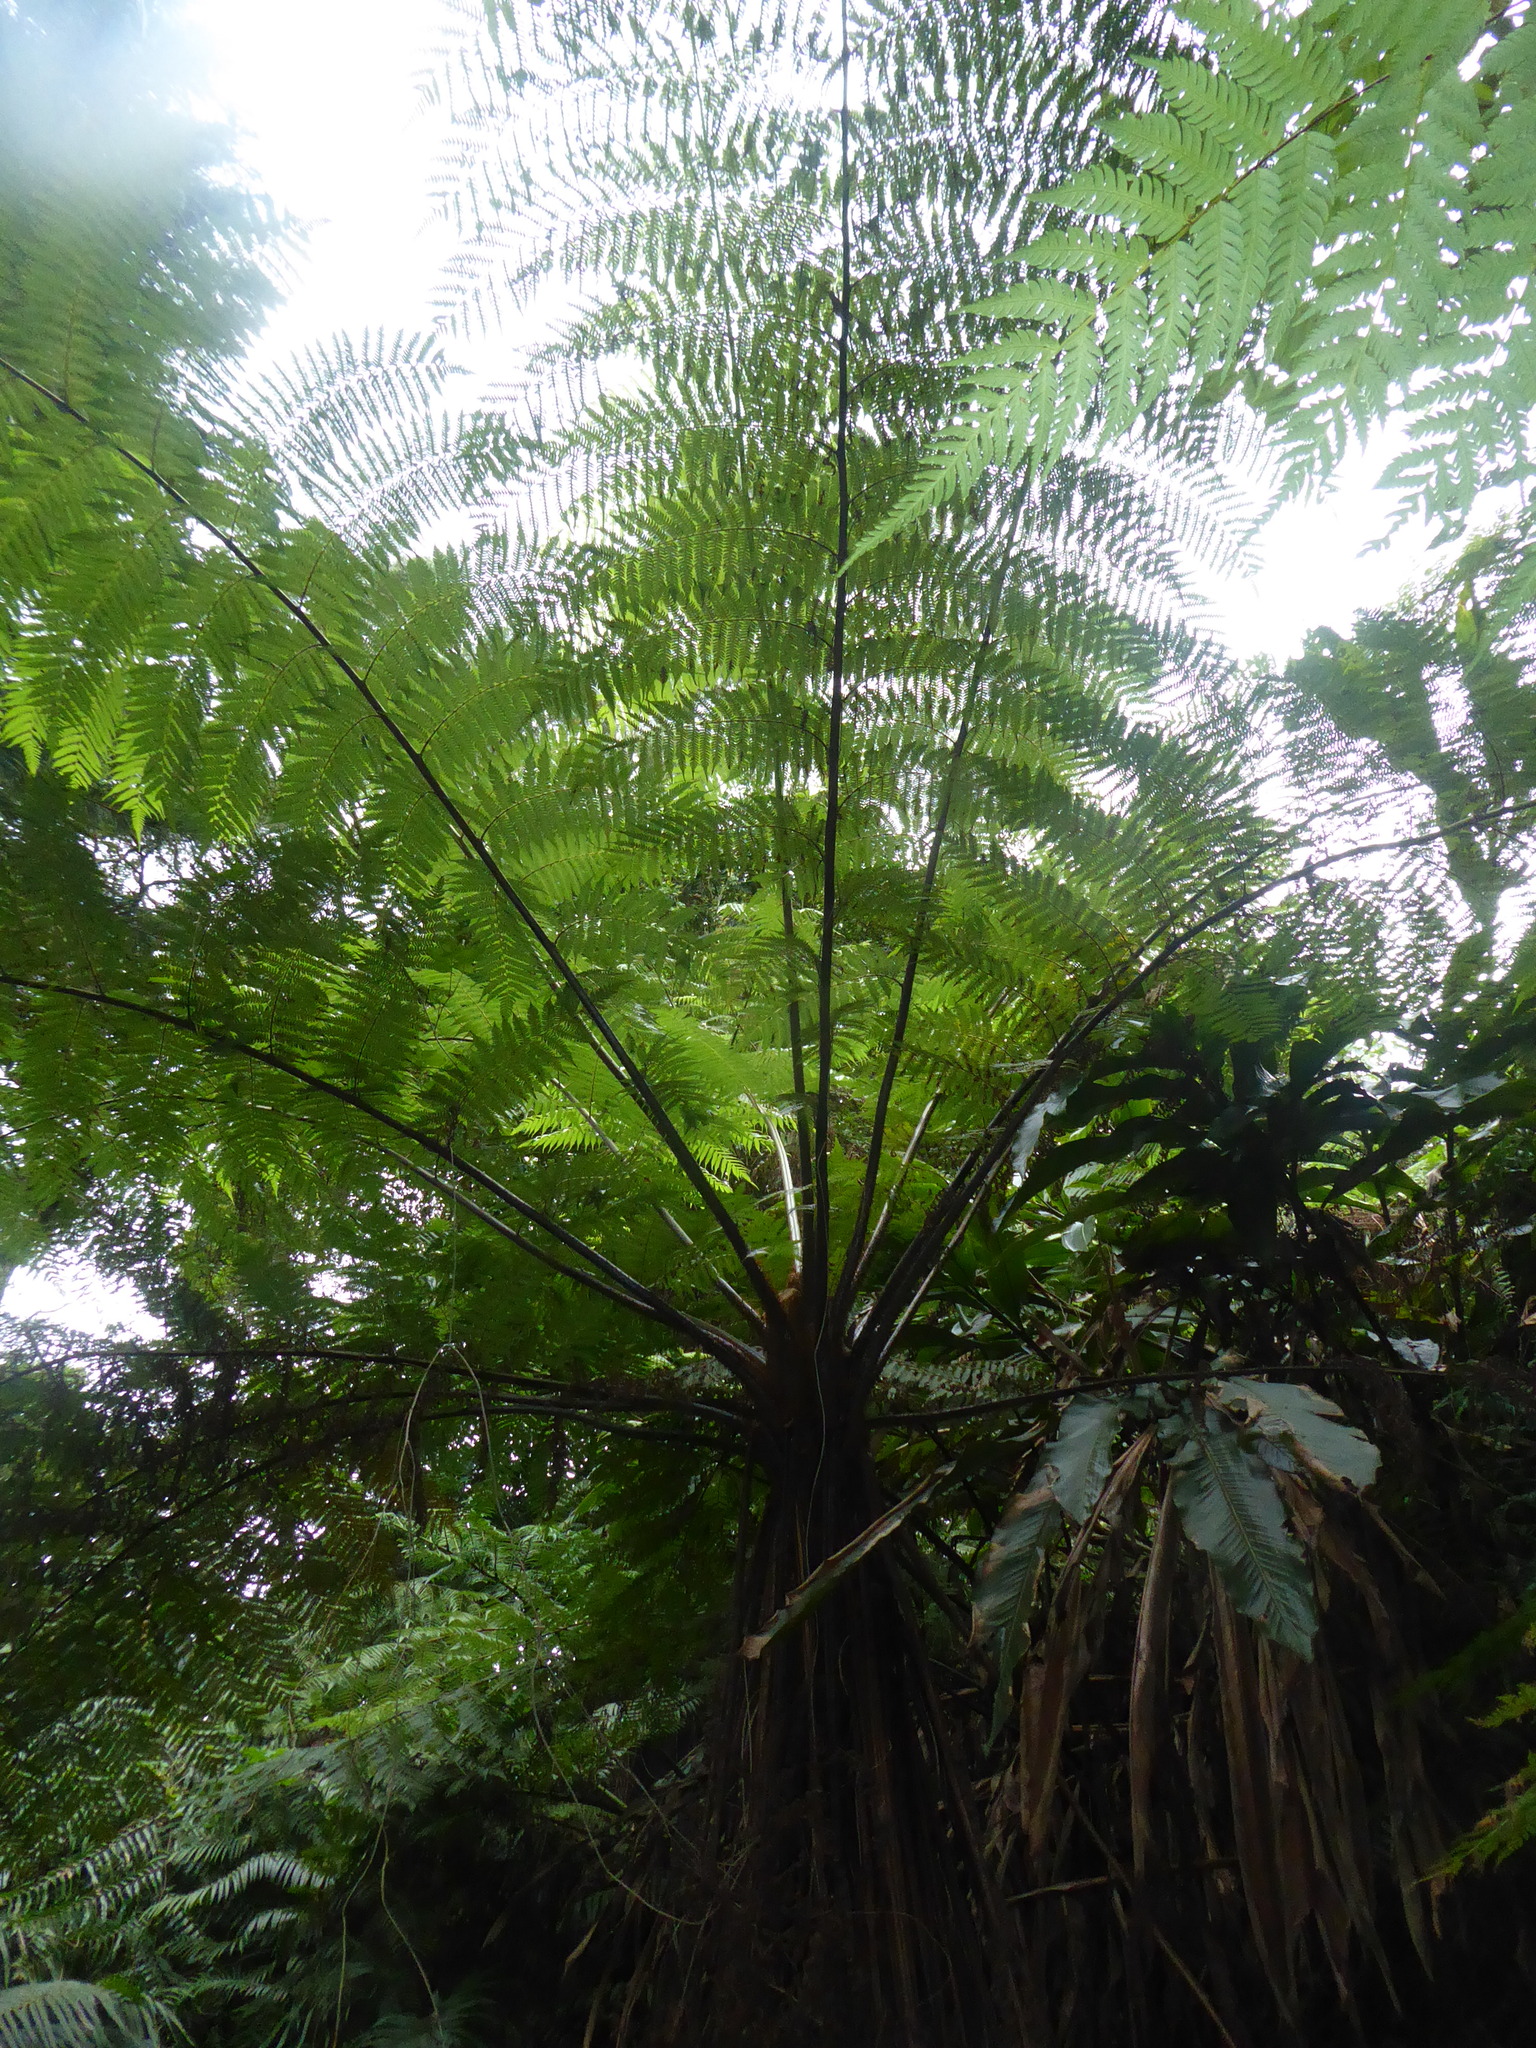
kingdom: Plantae
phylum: Tracheophyta
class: Polypodiopsida
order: Cyatheales
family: Cyatheaceae
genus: Alsophila
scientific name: Alsophila spinulosa
